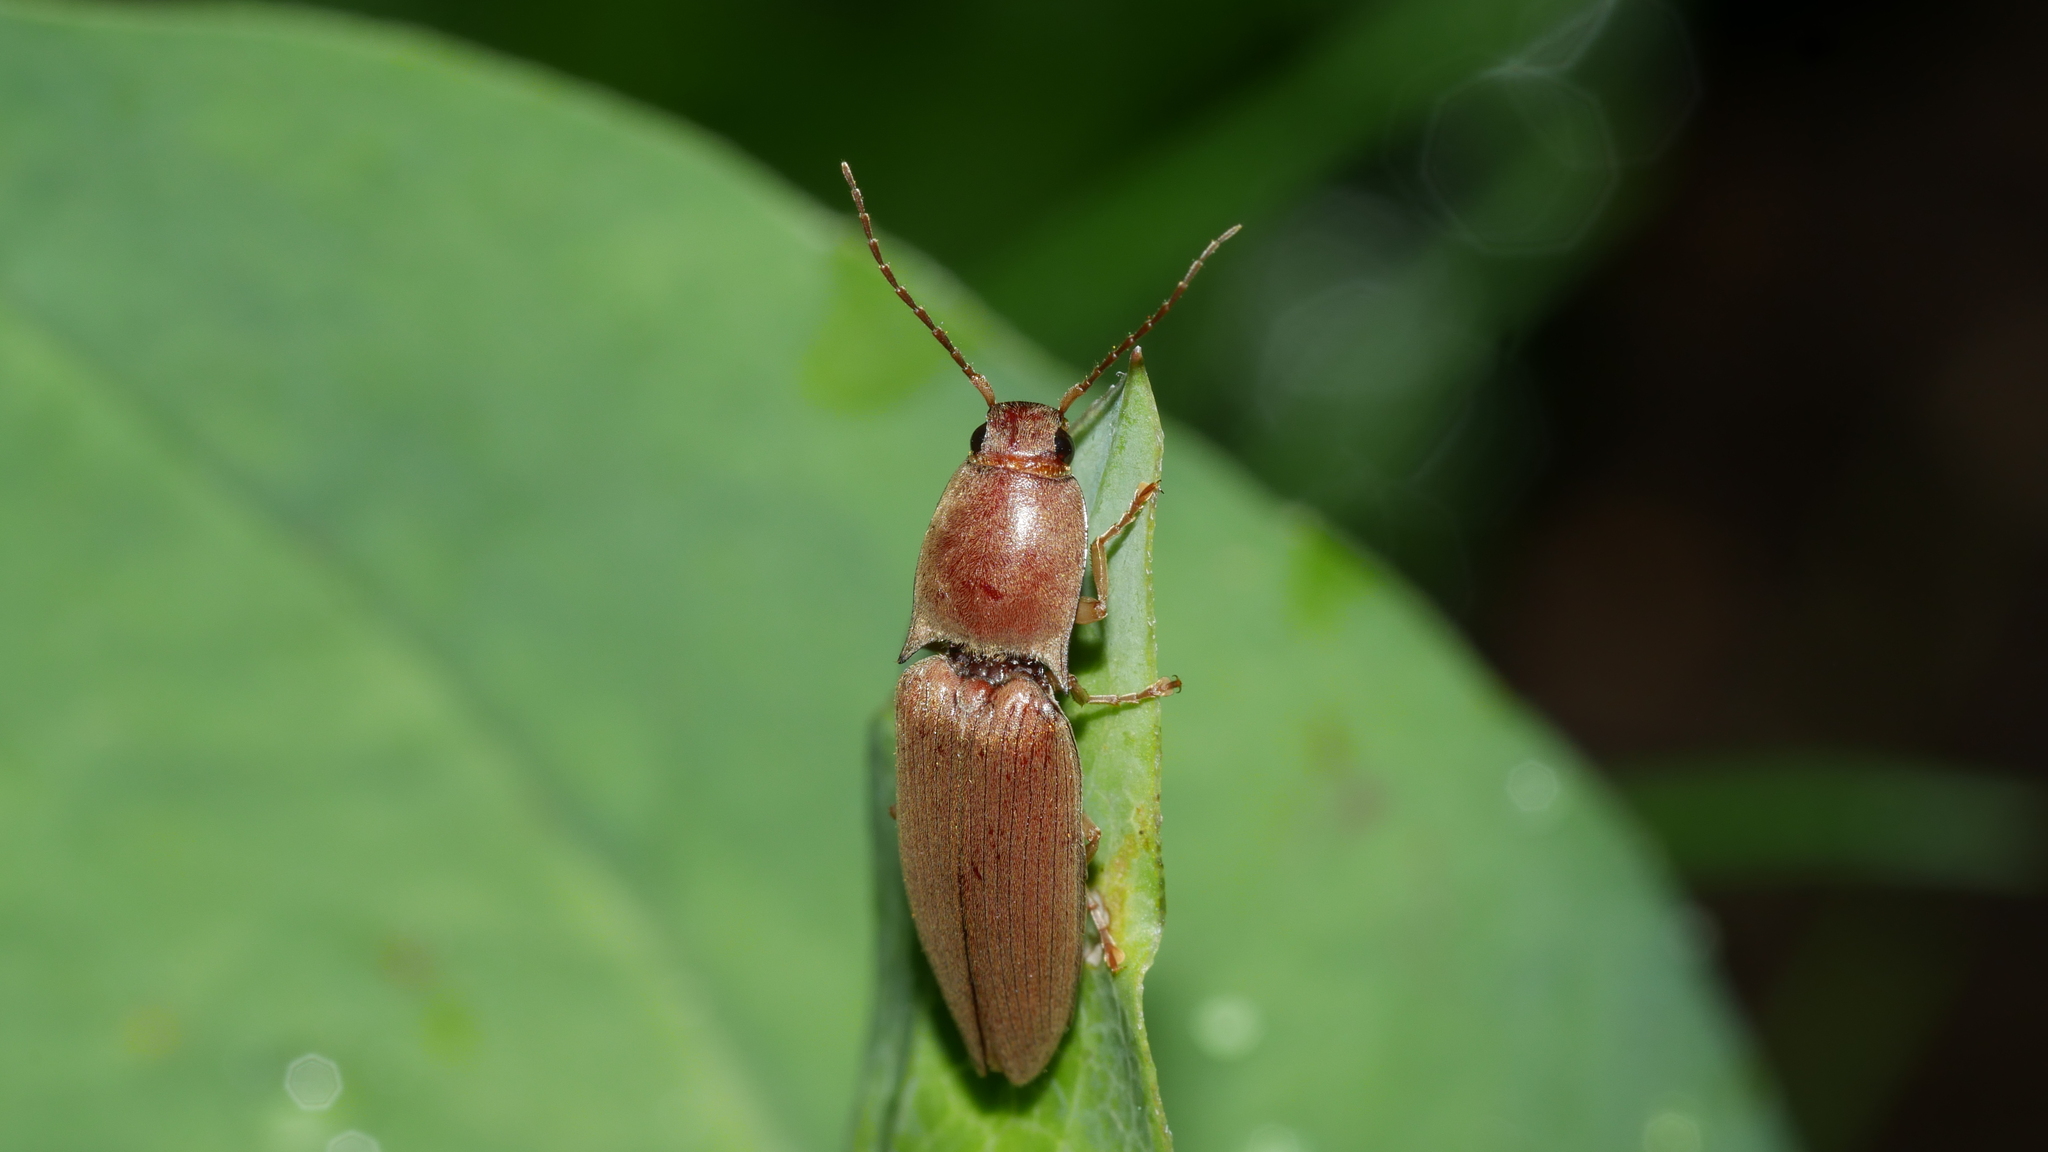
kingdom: Animalia
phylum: Arthropoda
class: Insecta
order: Coleoptera
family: Elateridae
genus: Monocrepidius
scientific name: Monocrepidius lividus
